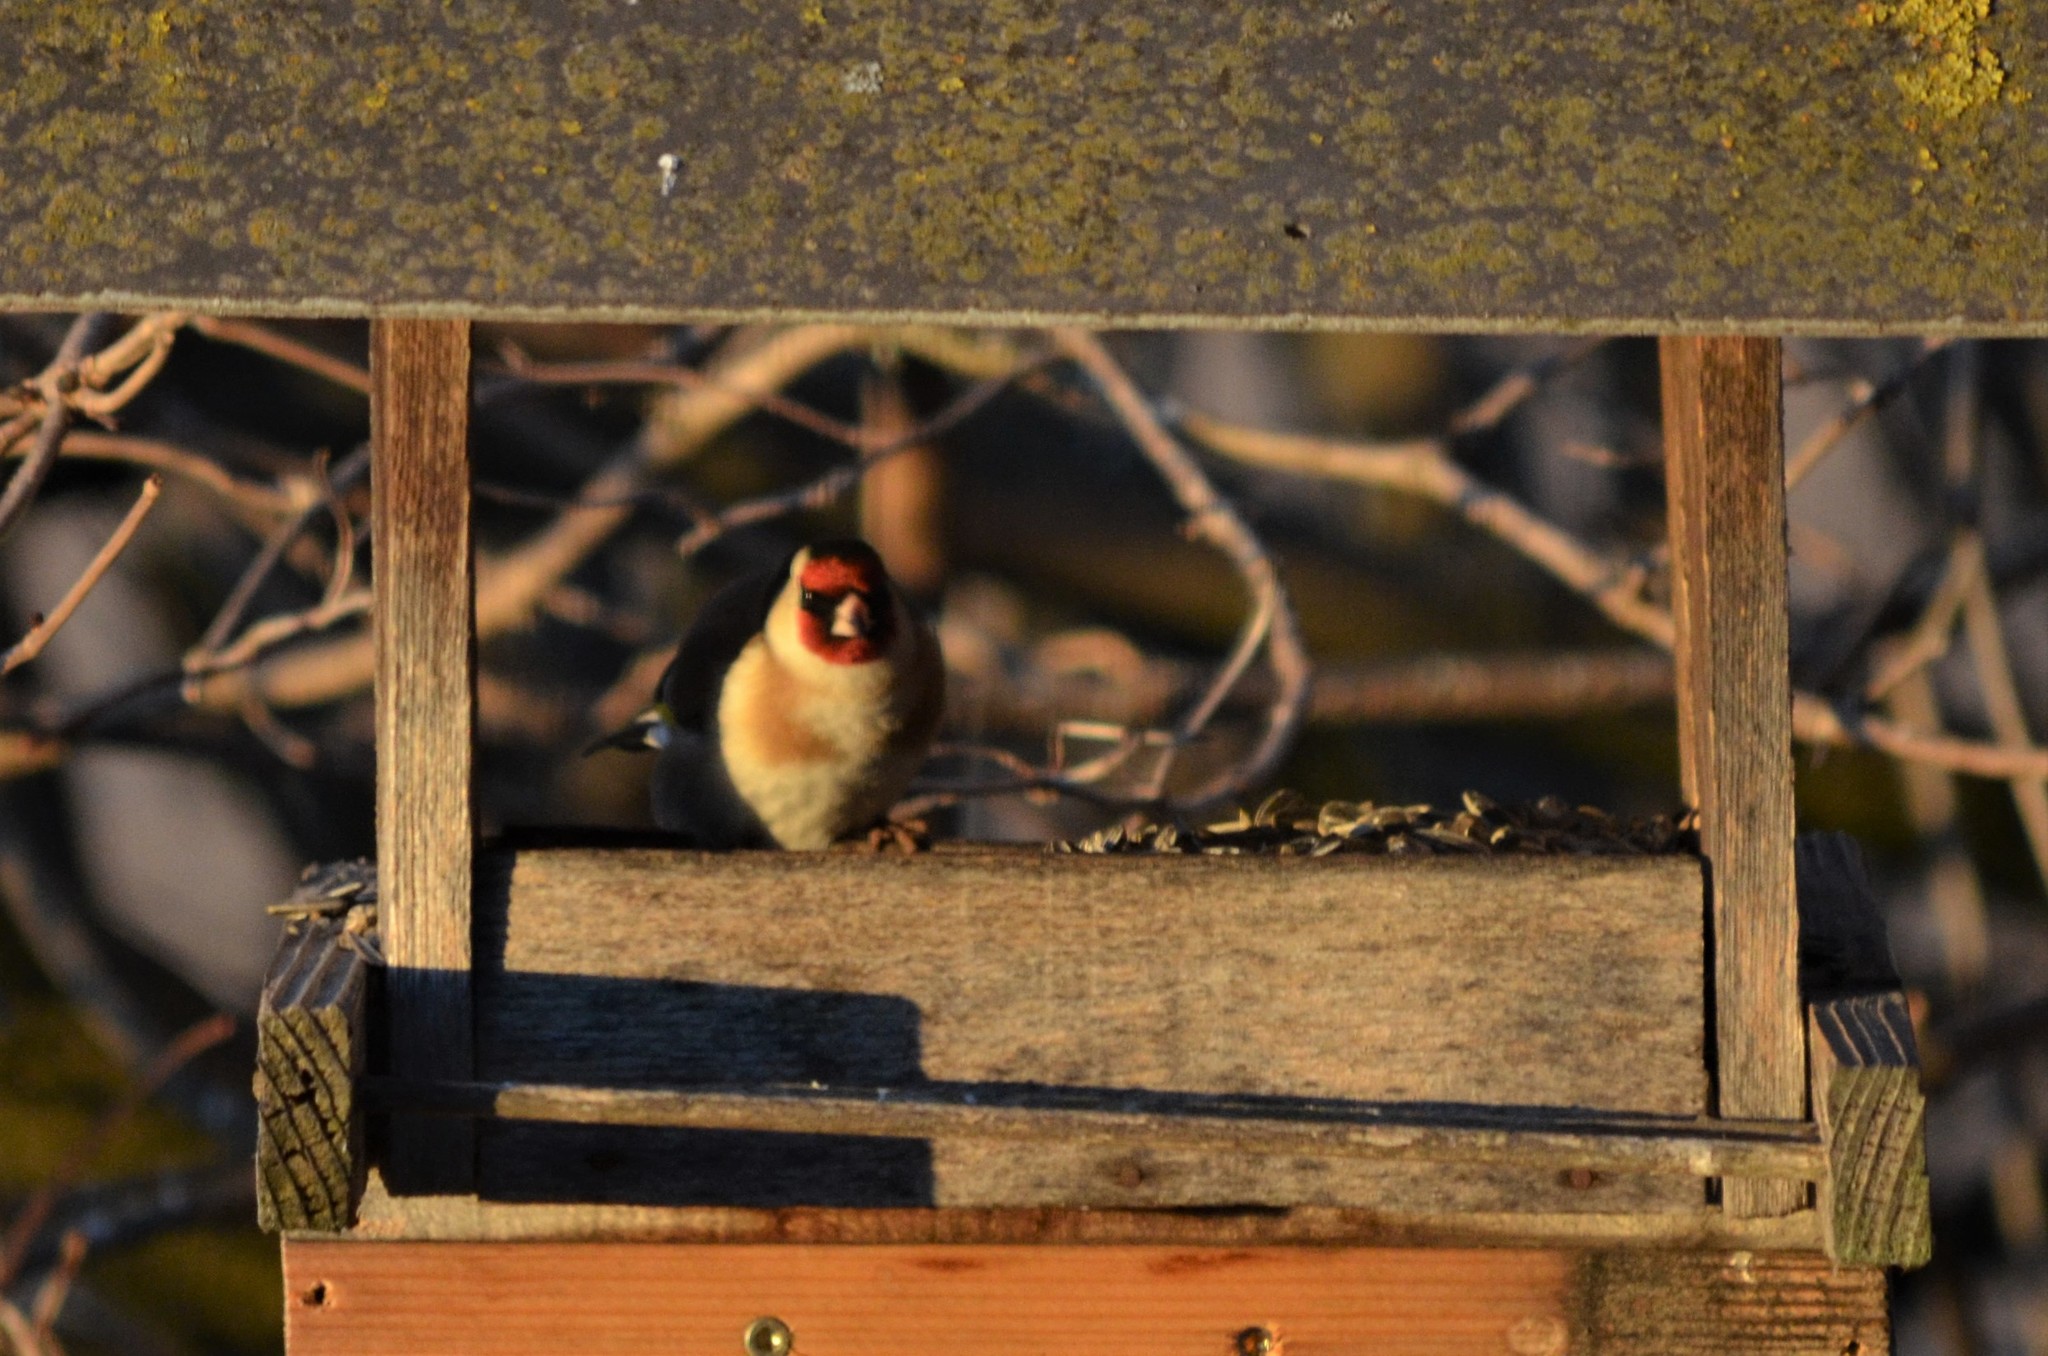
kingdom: Animalia
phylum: Chordata
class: Aves
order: Passeriformes
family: Fringillidae
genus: Carduelis
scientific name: Carduelis carduelis
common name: European goldfinch
